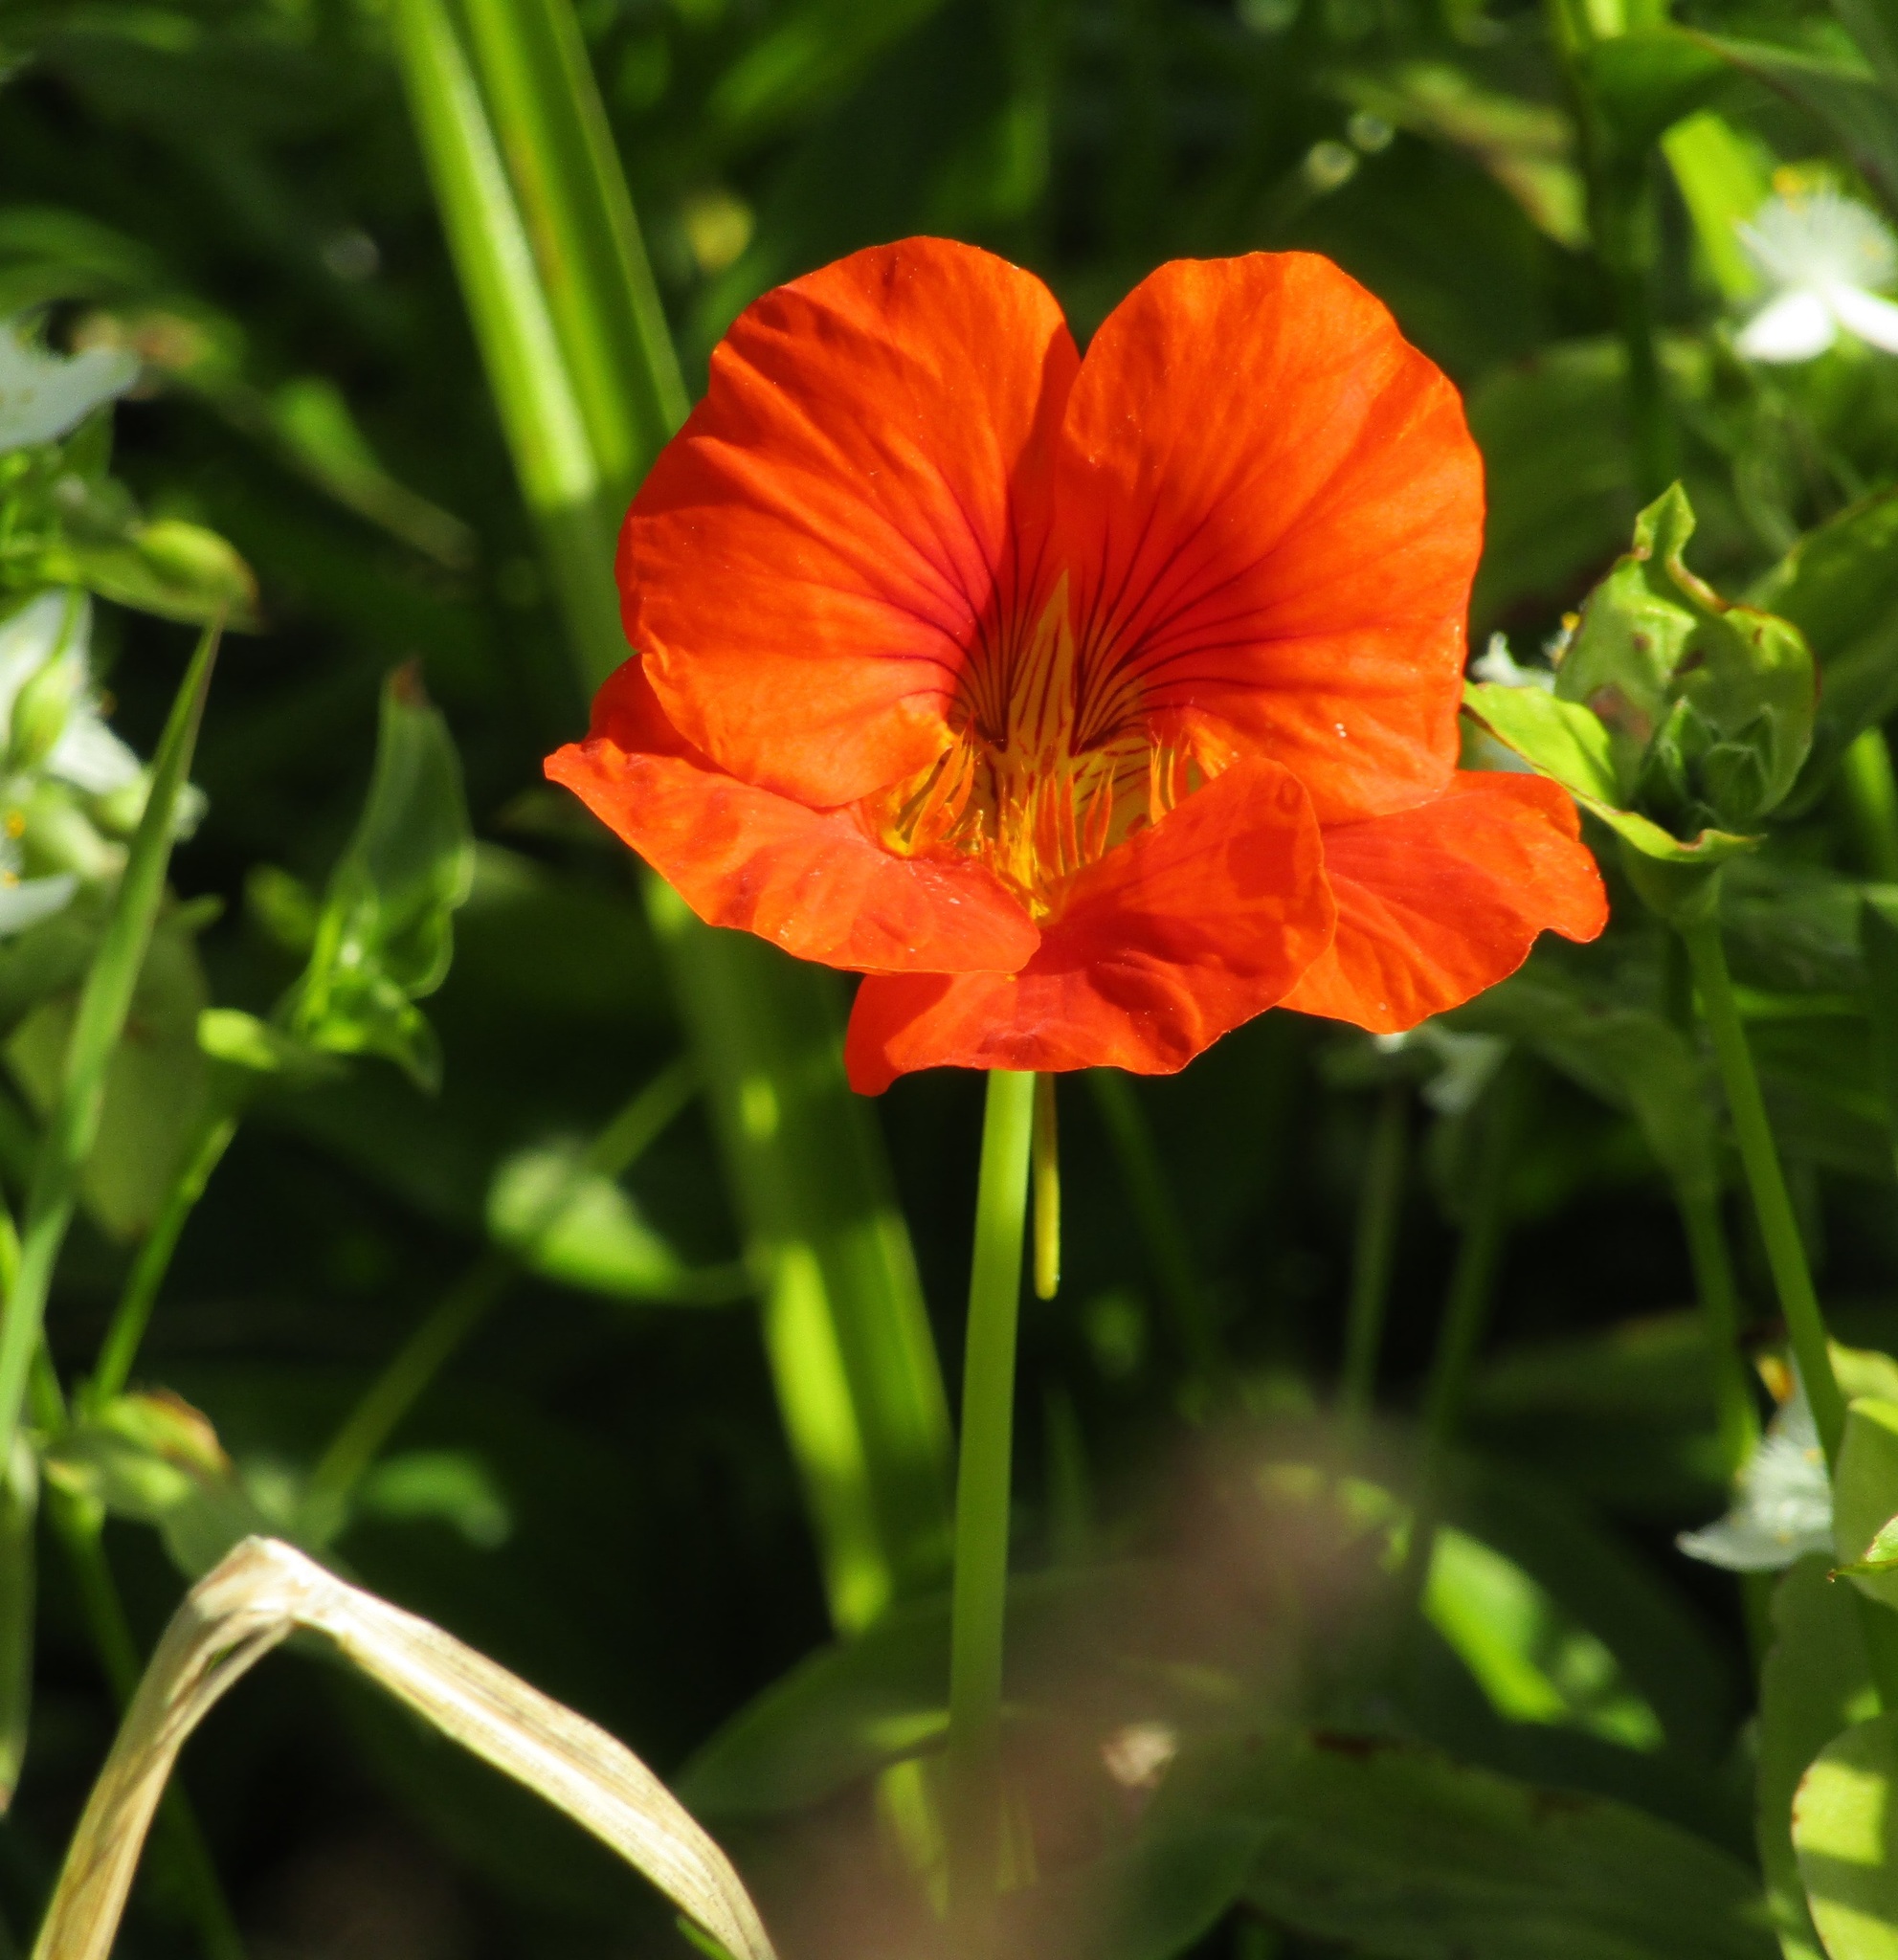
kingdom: Plantae
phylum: Tracheophyta
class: Magnoliopsida
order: Brassicales
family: Tropaeolaceae
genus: Tropaeolum
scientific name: Tropaeolum majus
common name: Nasturtium
